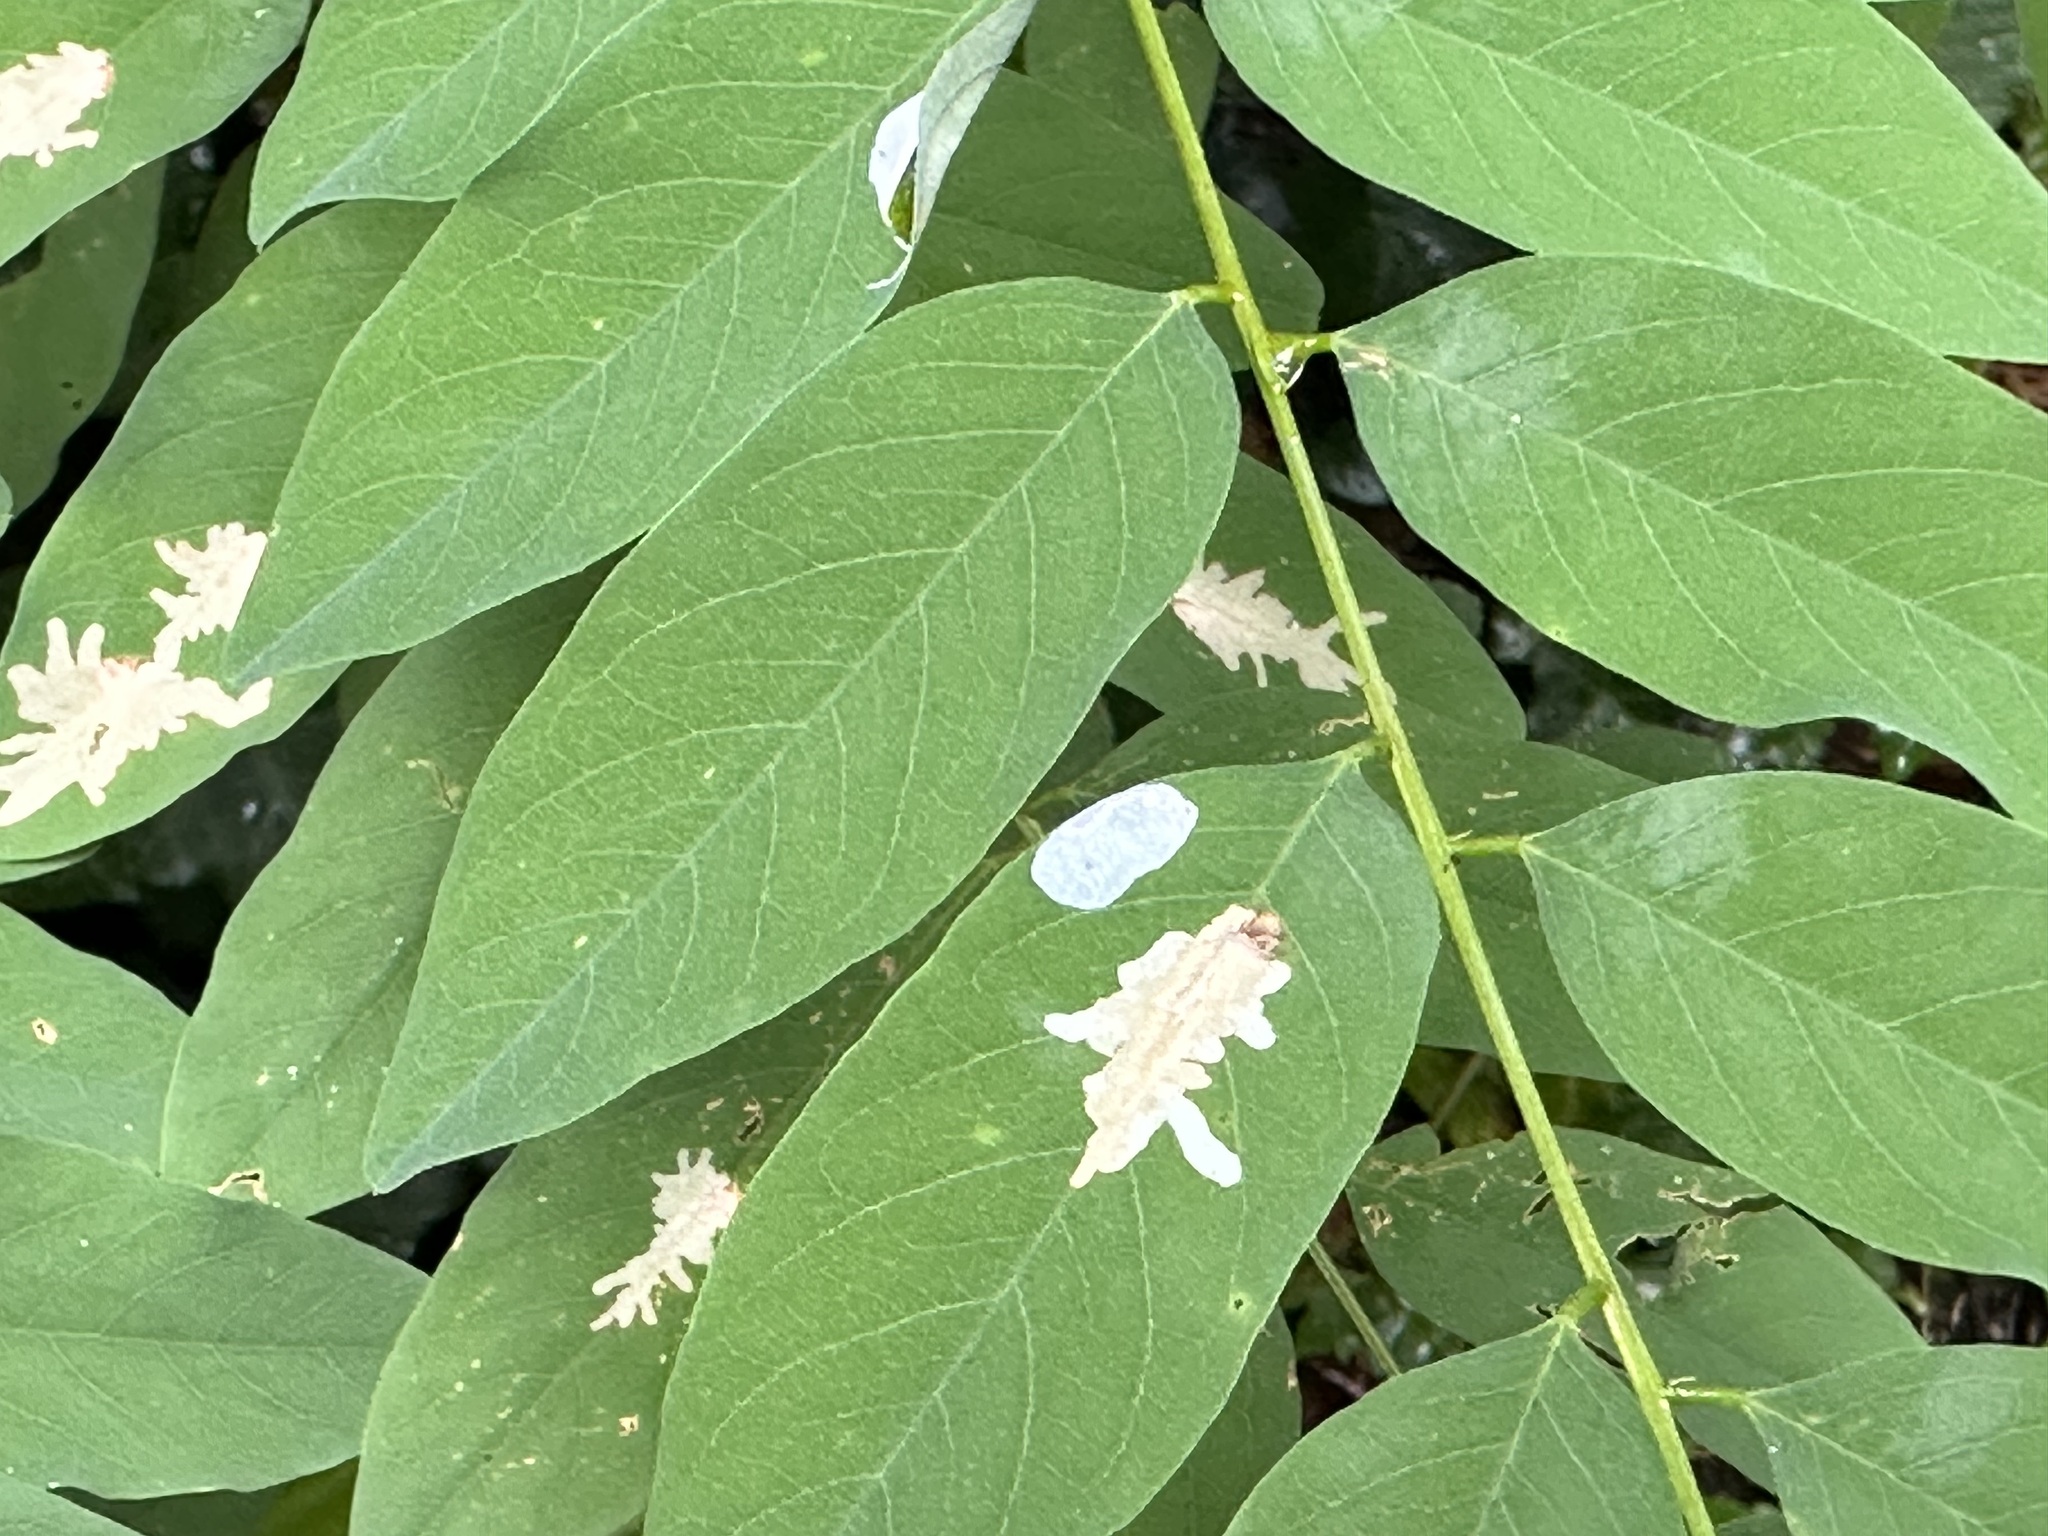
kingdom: Animalia
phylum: Arthropoda
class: Insecta
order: Lepidoptera
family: Gracillariidae
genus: Parectopa
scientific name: Parectopa robiniella
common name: Locust digitate leafminer
